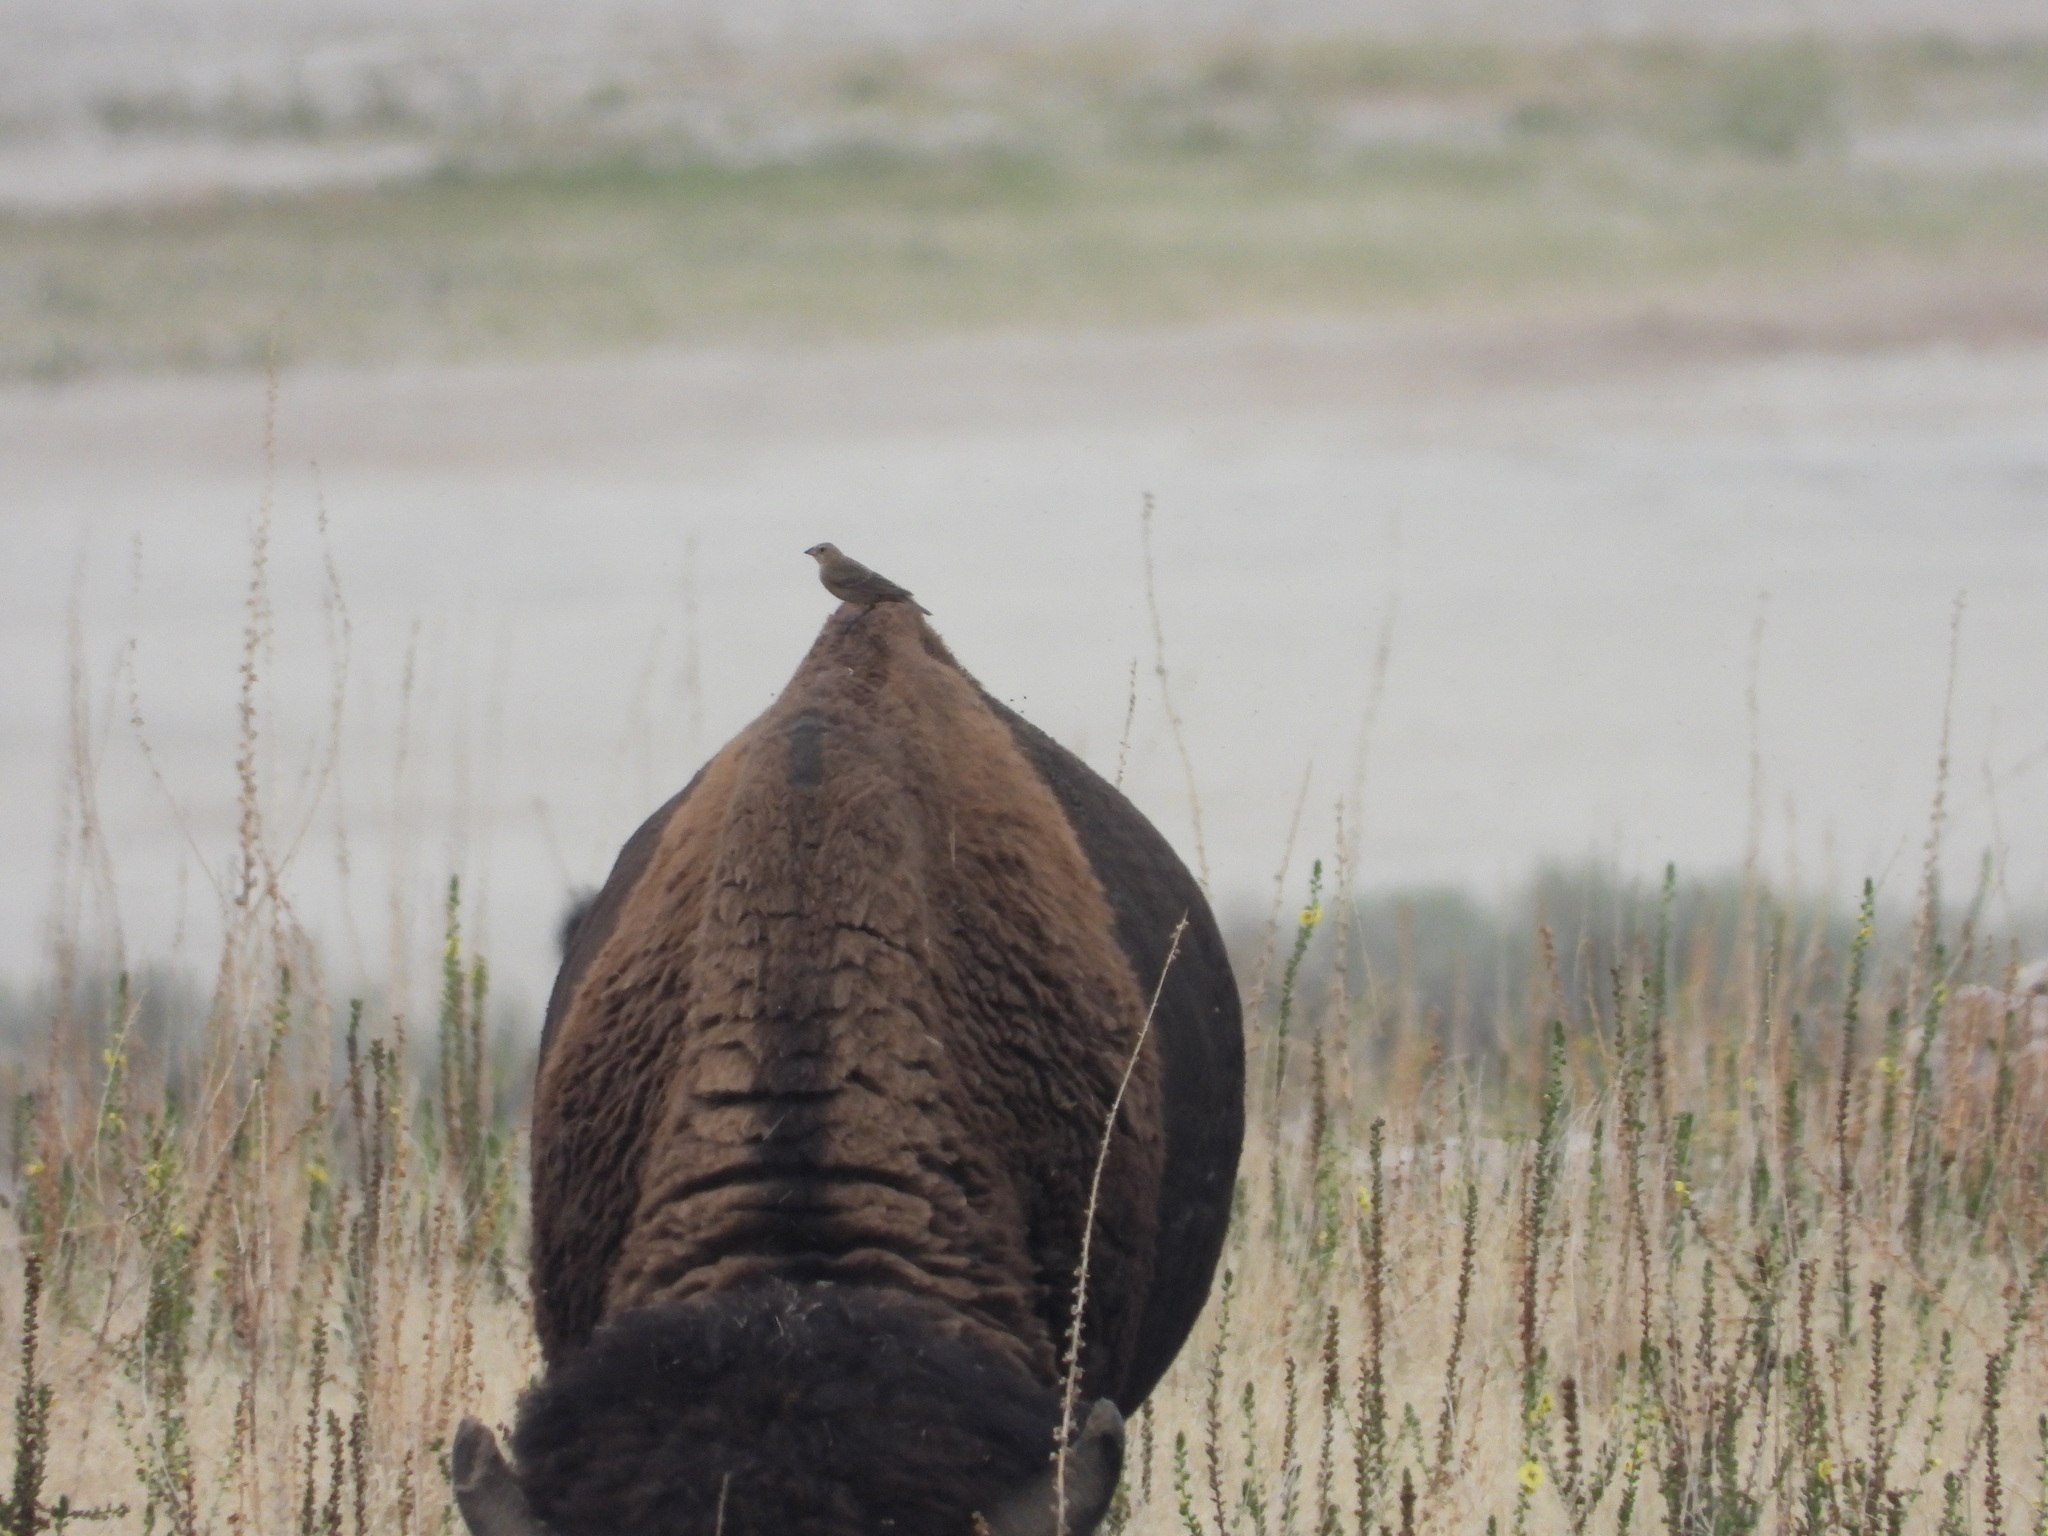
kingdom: Animalia
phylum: Chordata
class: Aves
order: Passeriformes
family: Icteridae
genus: Molothrus
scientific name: Molothrus ater
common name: Brown-headed cowbird
